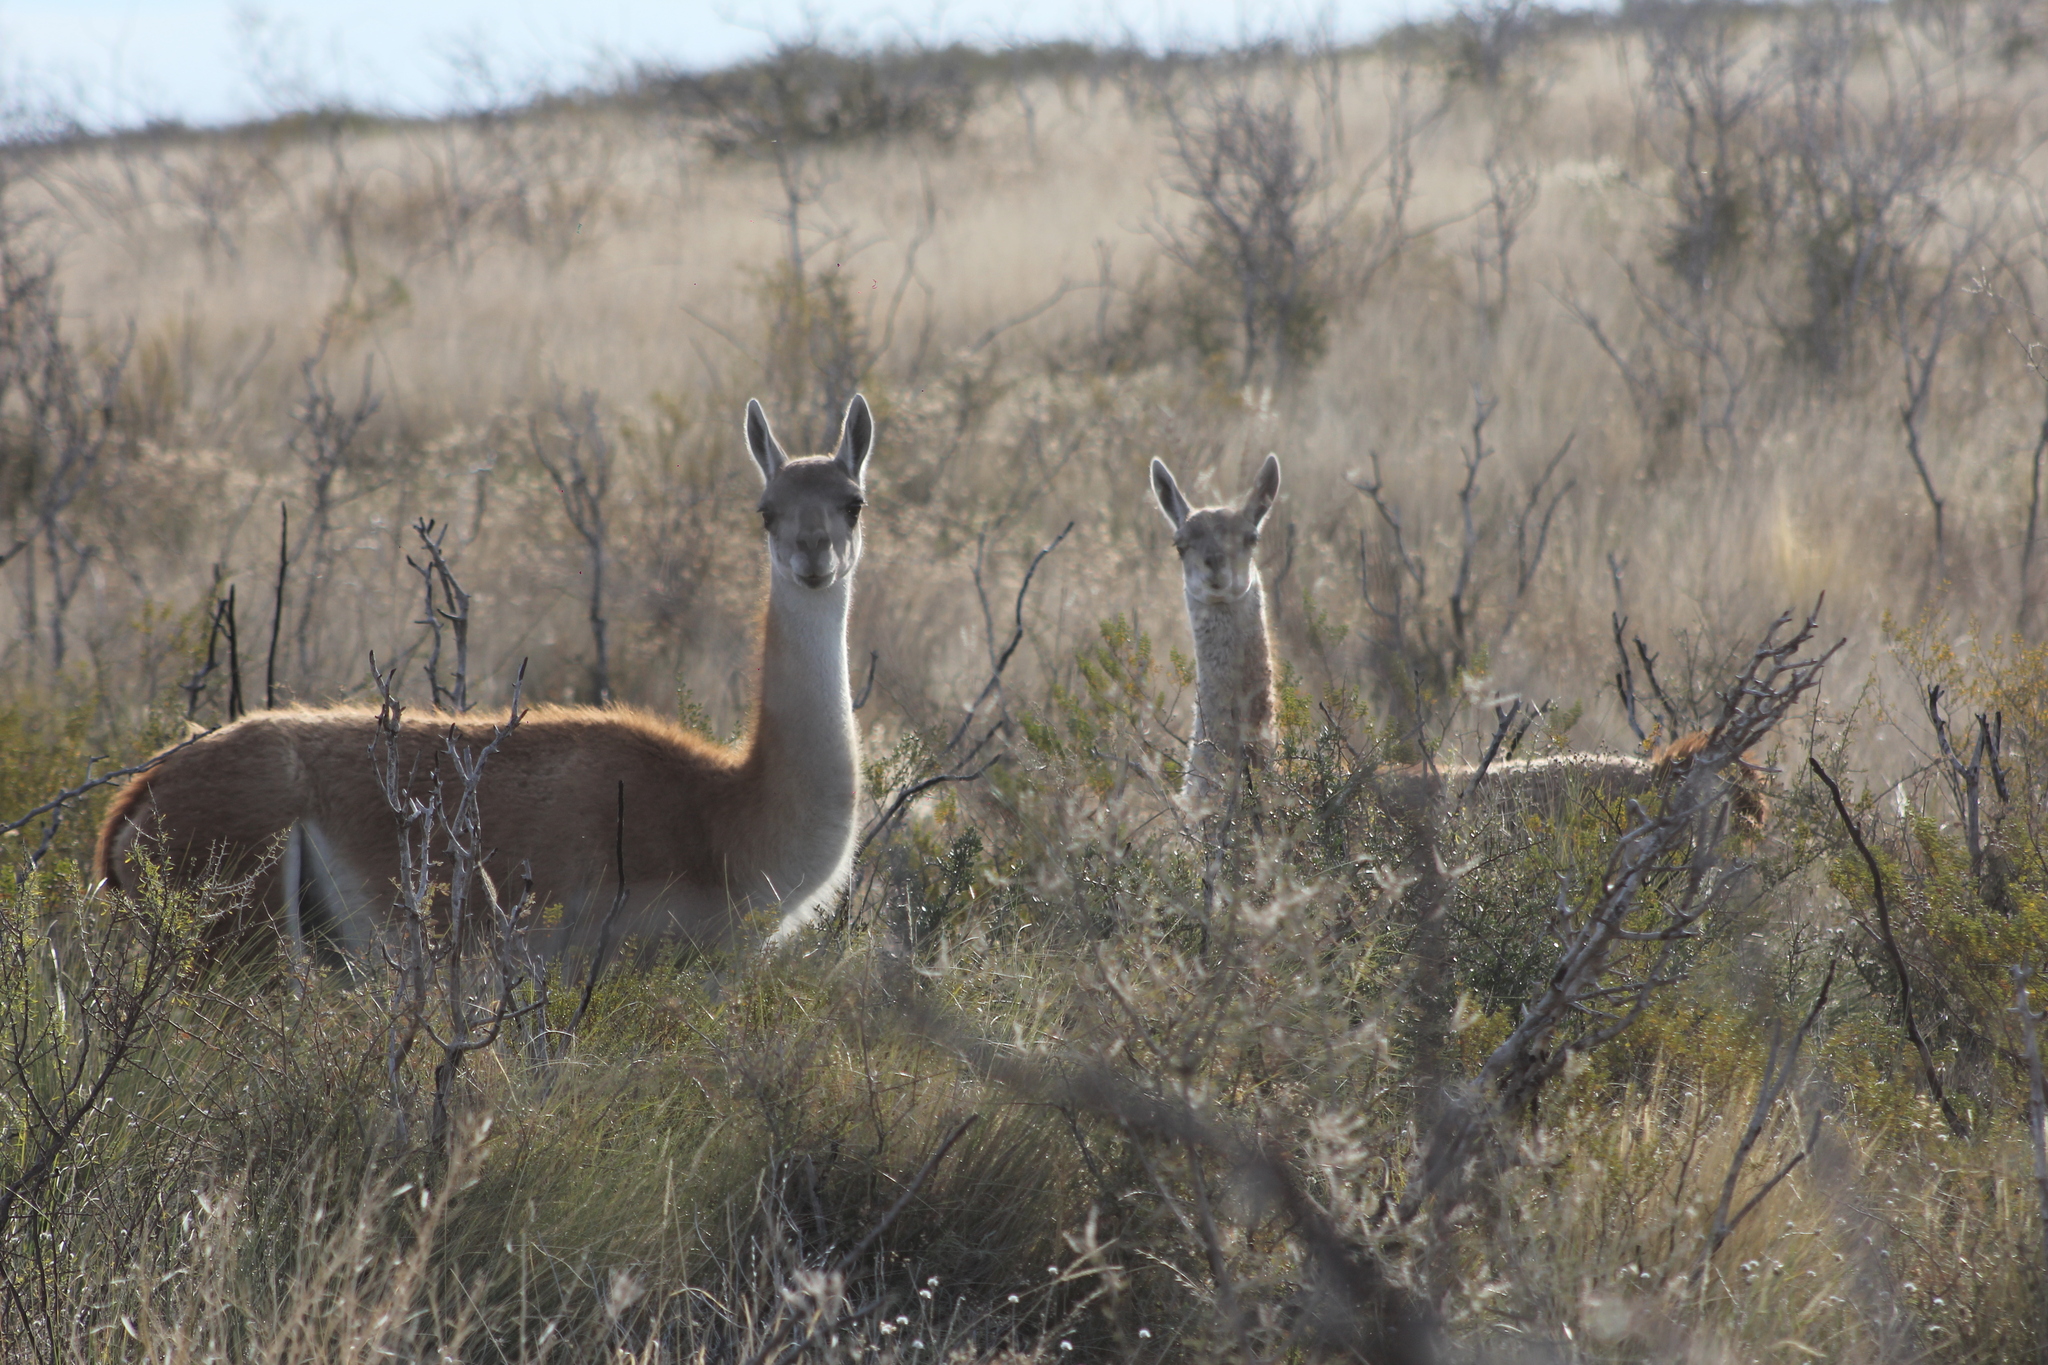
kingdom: Animalia
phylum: Chordata
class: Mammalia
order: Artiodactyla
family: Camelidae
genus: Lama
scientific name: Lama glama
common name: Llama
